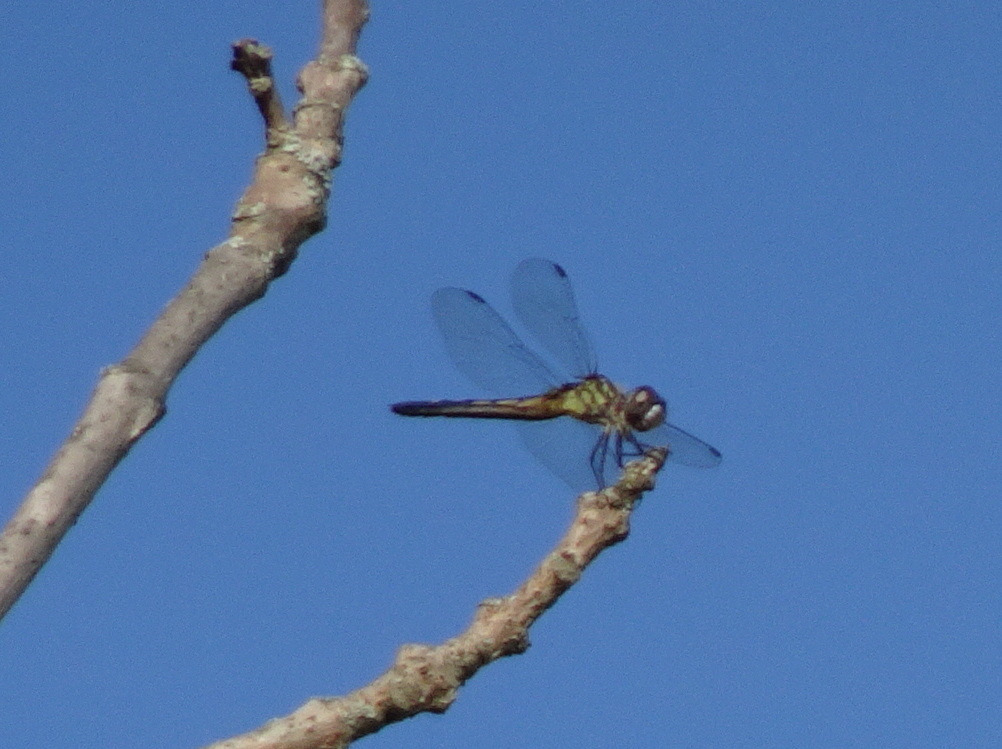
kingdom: Animalia
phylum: Arthropoda
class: Insecta
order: Odonata
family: Libellulidae
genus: Pachydiplax
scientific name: Pachydiplax longipennis
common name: Blue dasher
